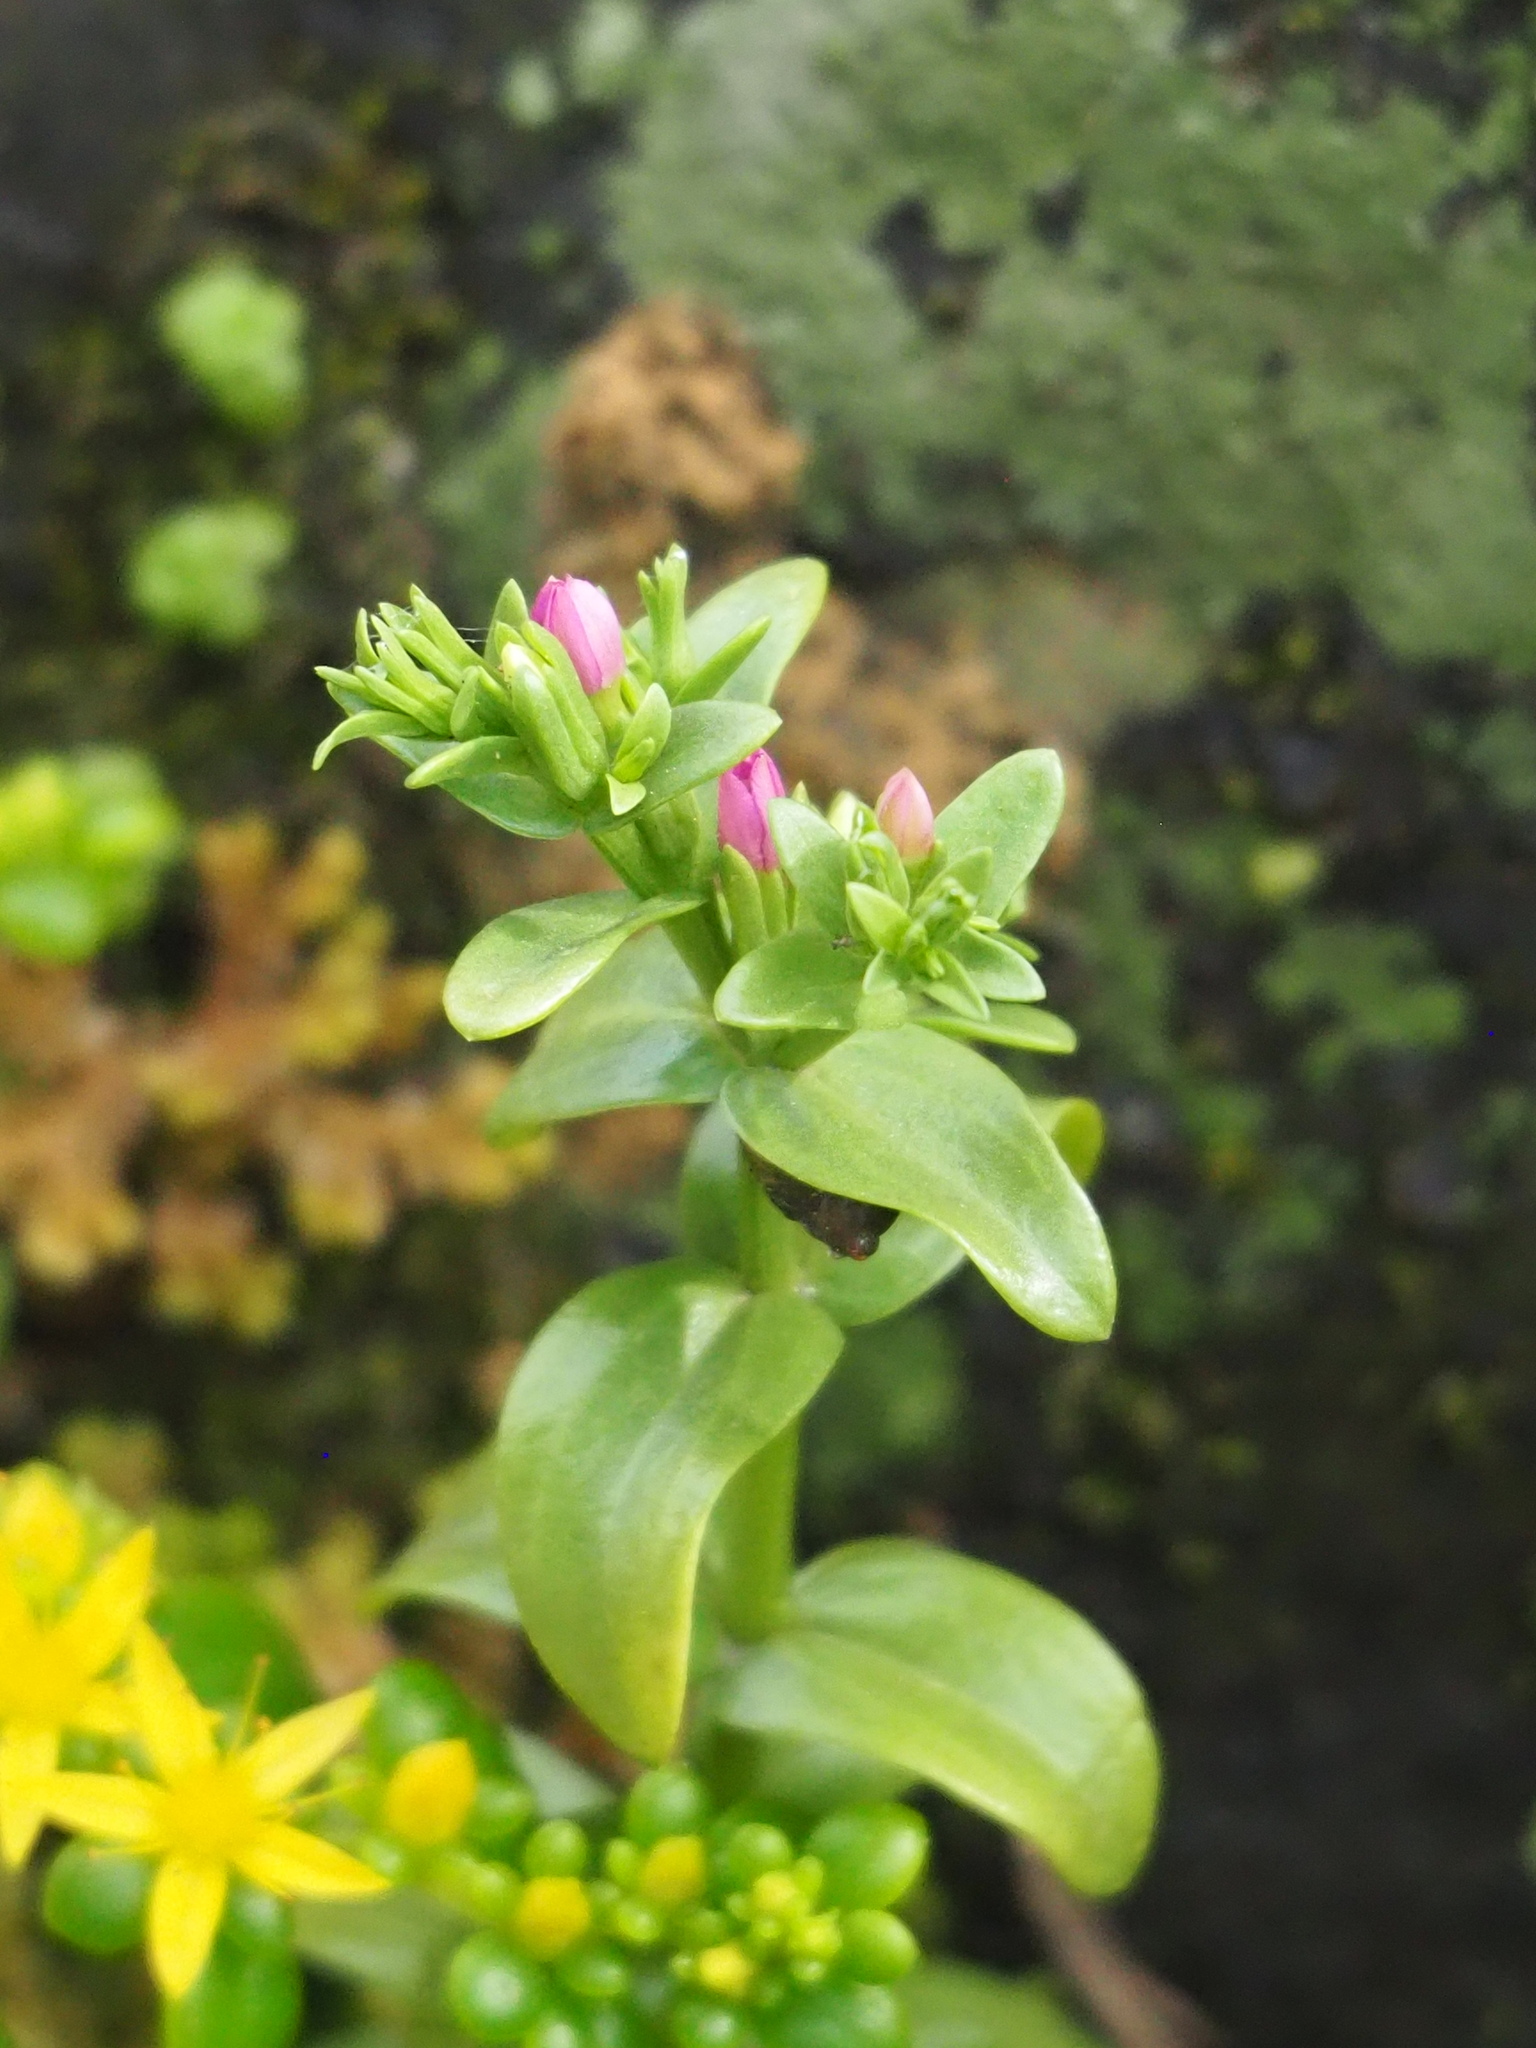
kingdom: Plantae
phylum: Tracheophyta
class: Magnoliopsida
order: Gentianales
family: Gentianaceae
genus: Schenkia
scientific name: Schenkia japonica
